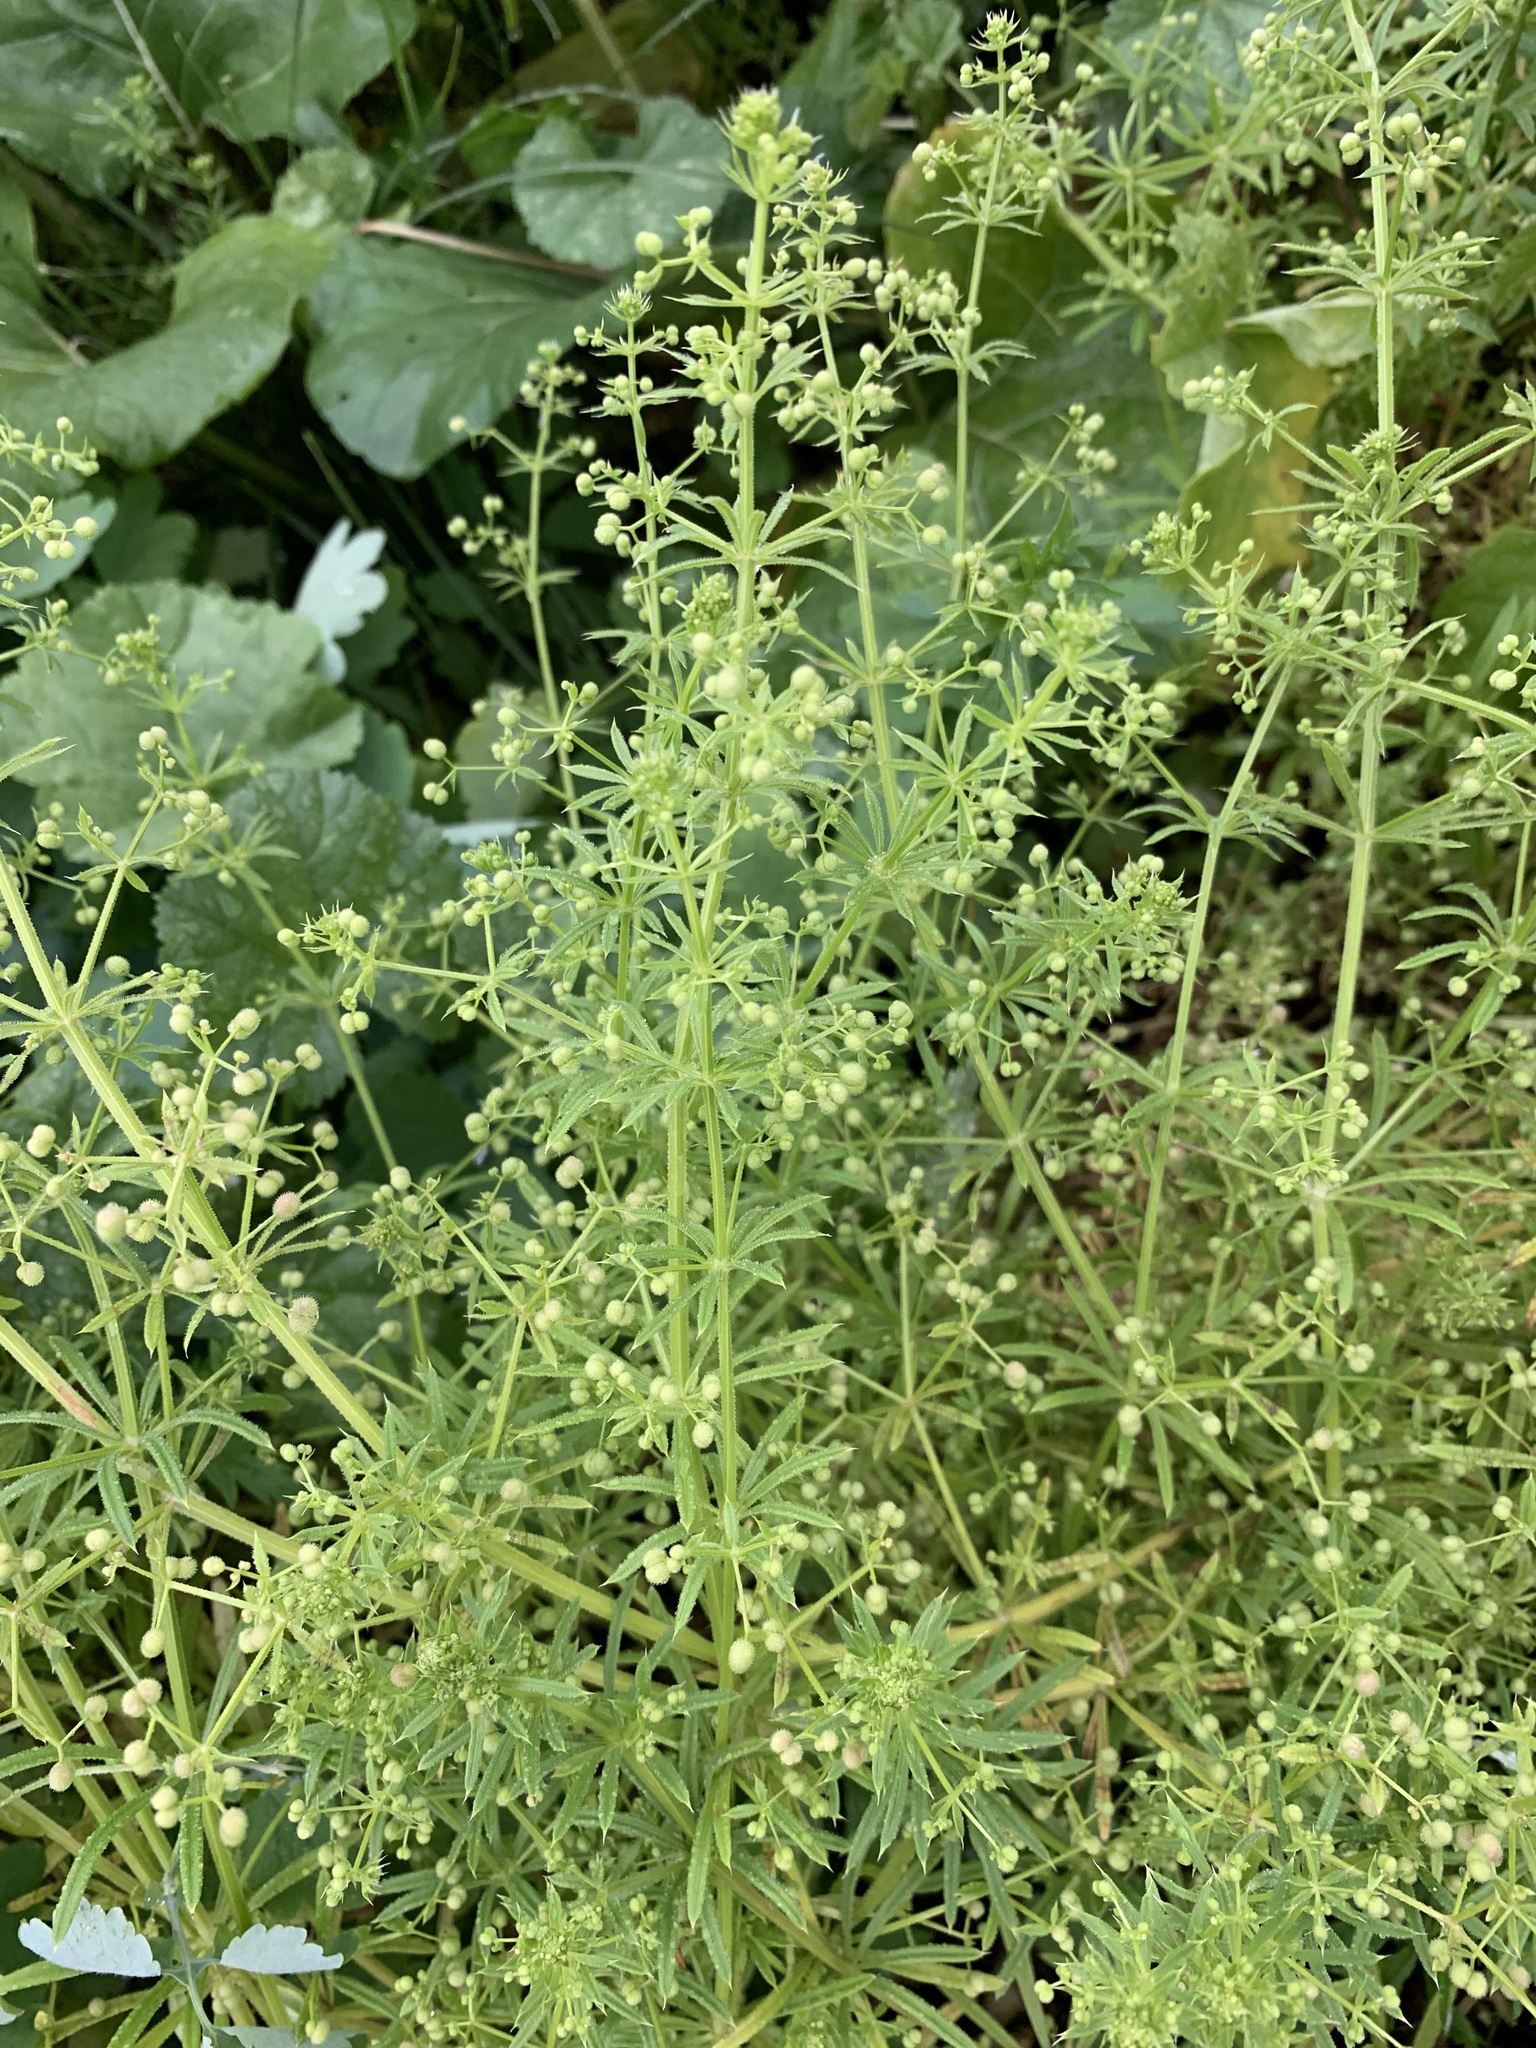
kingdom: Plantae
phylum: Tracheophyta
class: Magnoliopsida
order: Gentianales
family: Rubiaceae
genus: Galium
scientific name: Galium
